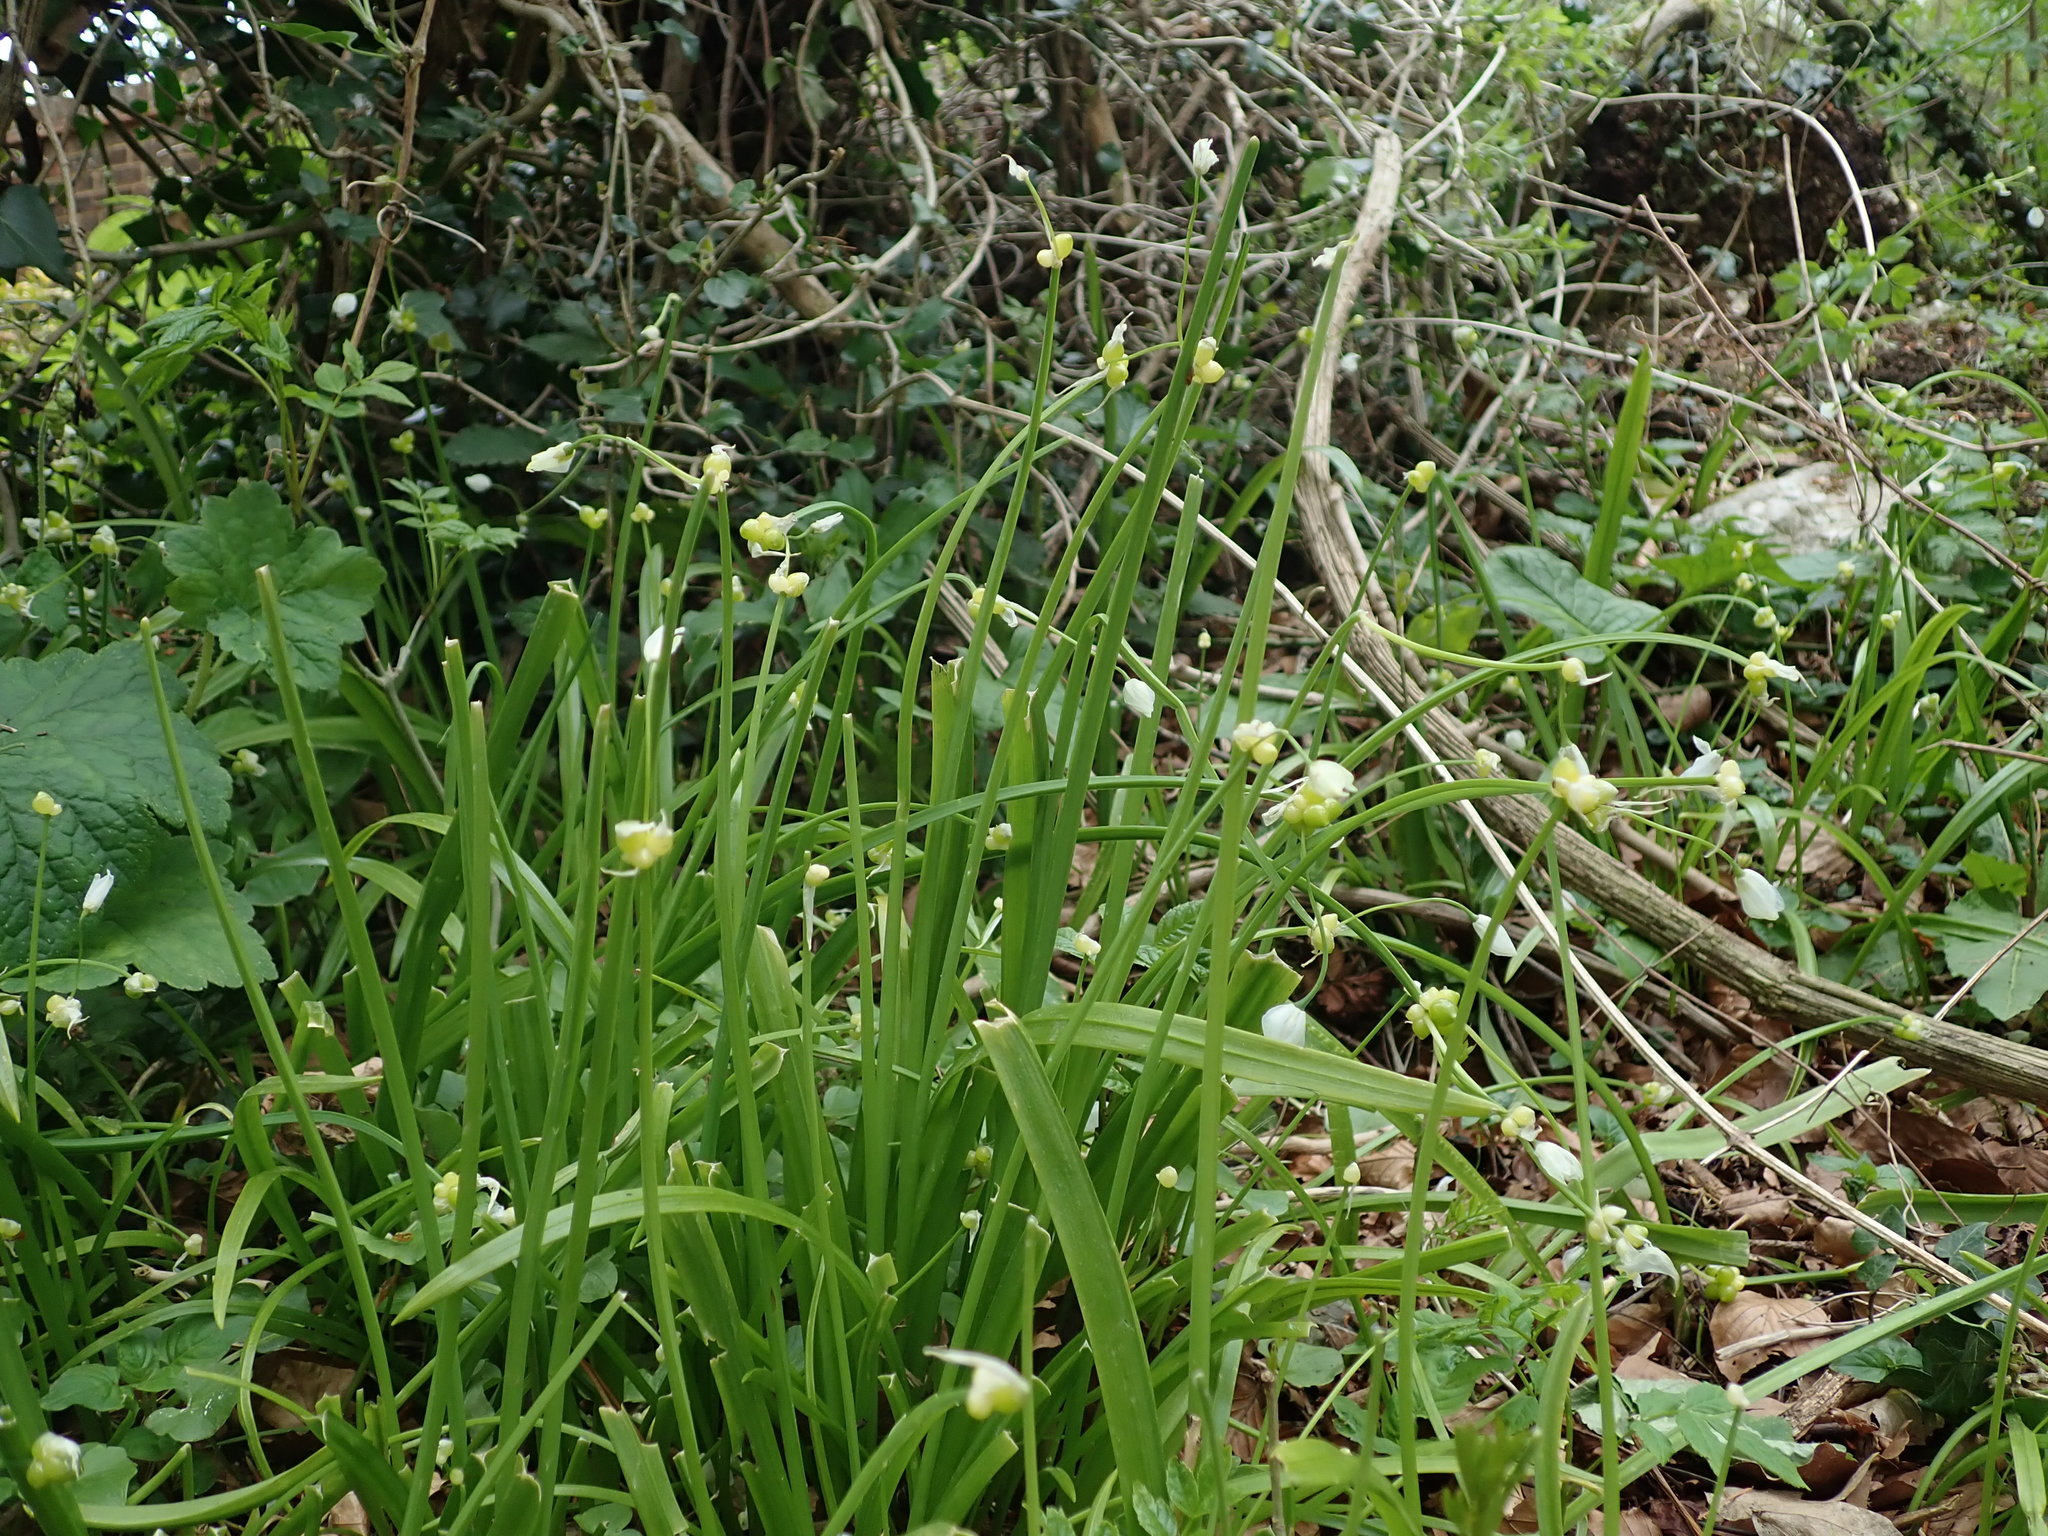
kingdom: Plantae
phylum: Tracheophyta
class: Liliopsida
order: Asparagales
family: Amaryllidaceae
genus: Allium
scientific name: Allium paradoxum
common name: Few-flowered garlic
